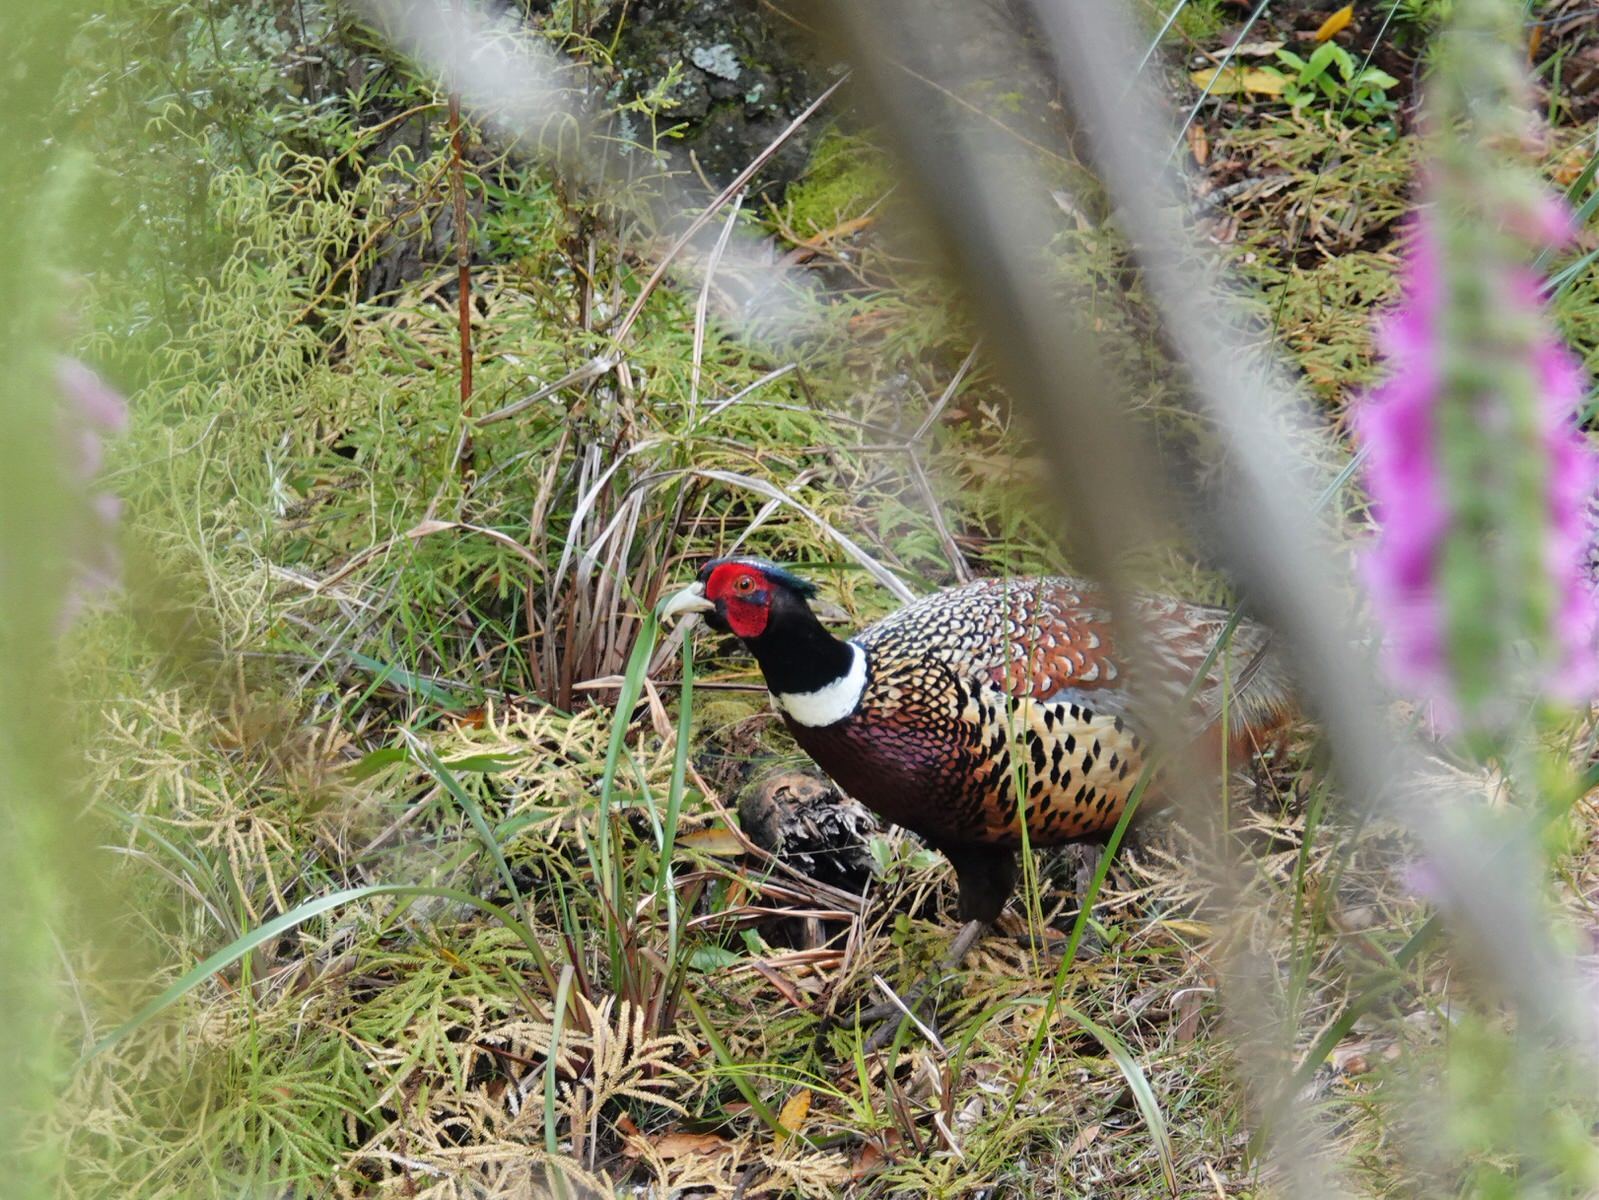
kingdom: Animalia
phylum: Chordata
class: Aves
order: Galliformes
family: Phasianidae
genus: Phasianus
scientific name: Phasianus colchicus
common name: Common pheasant
